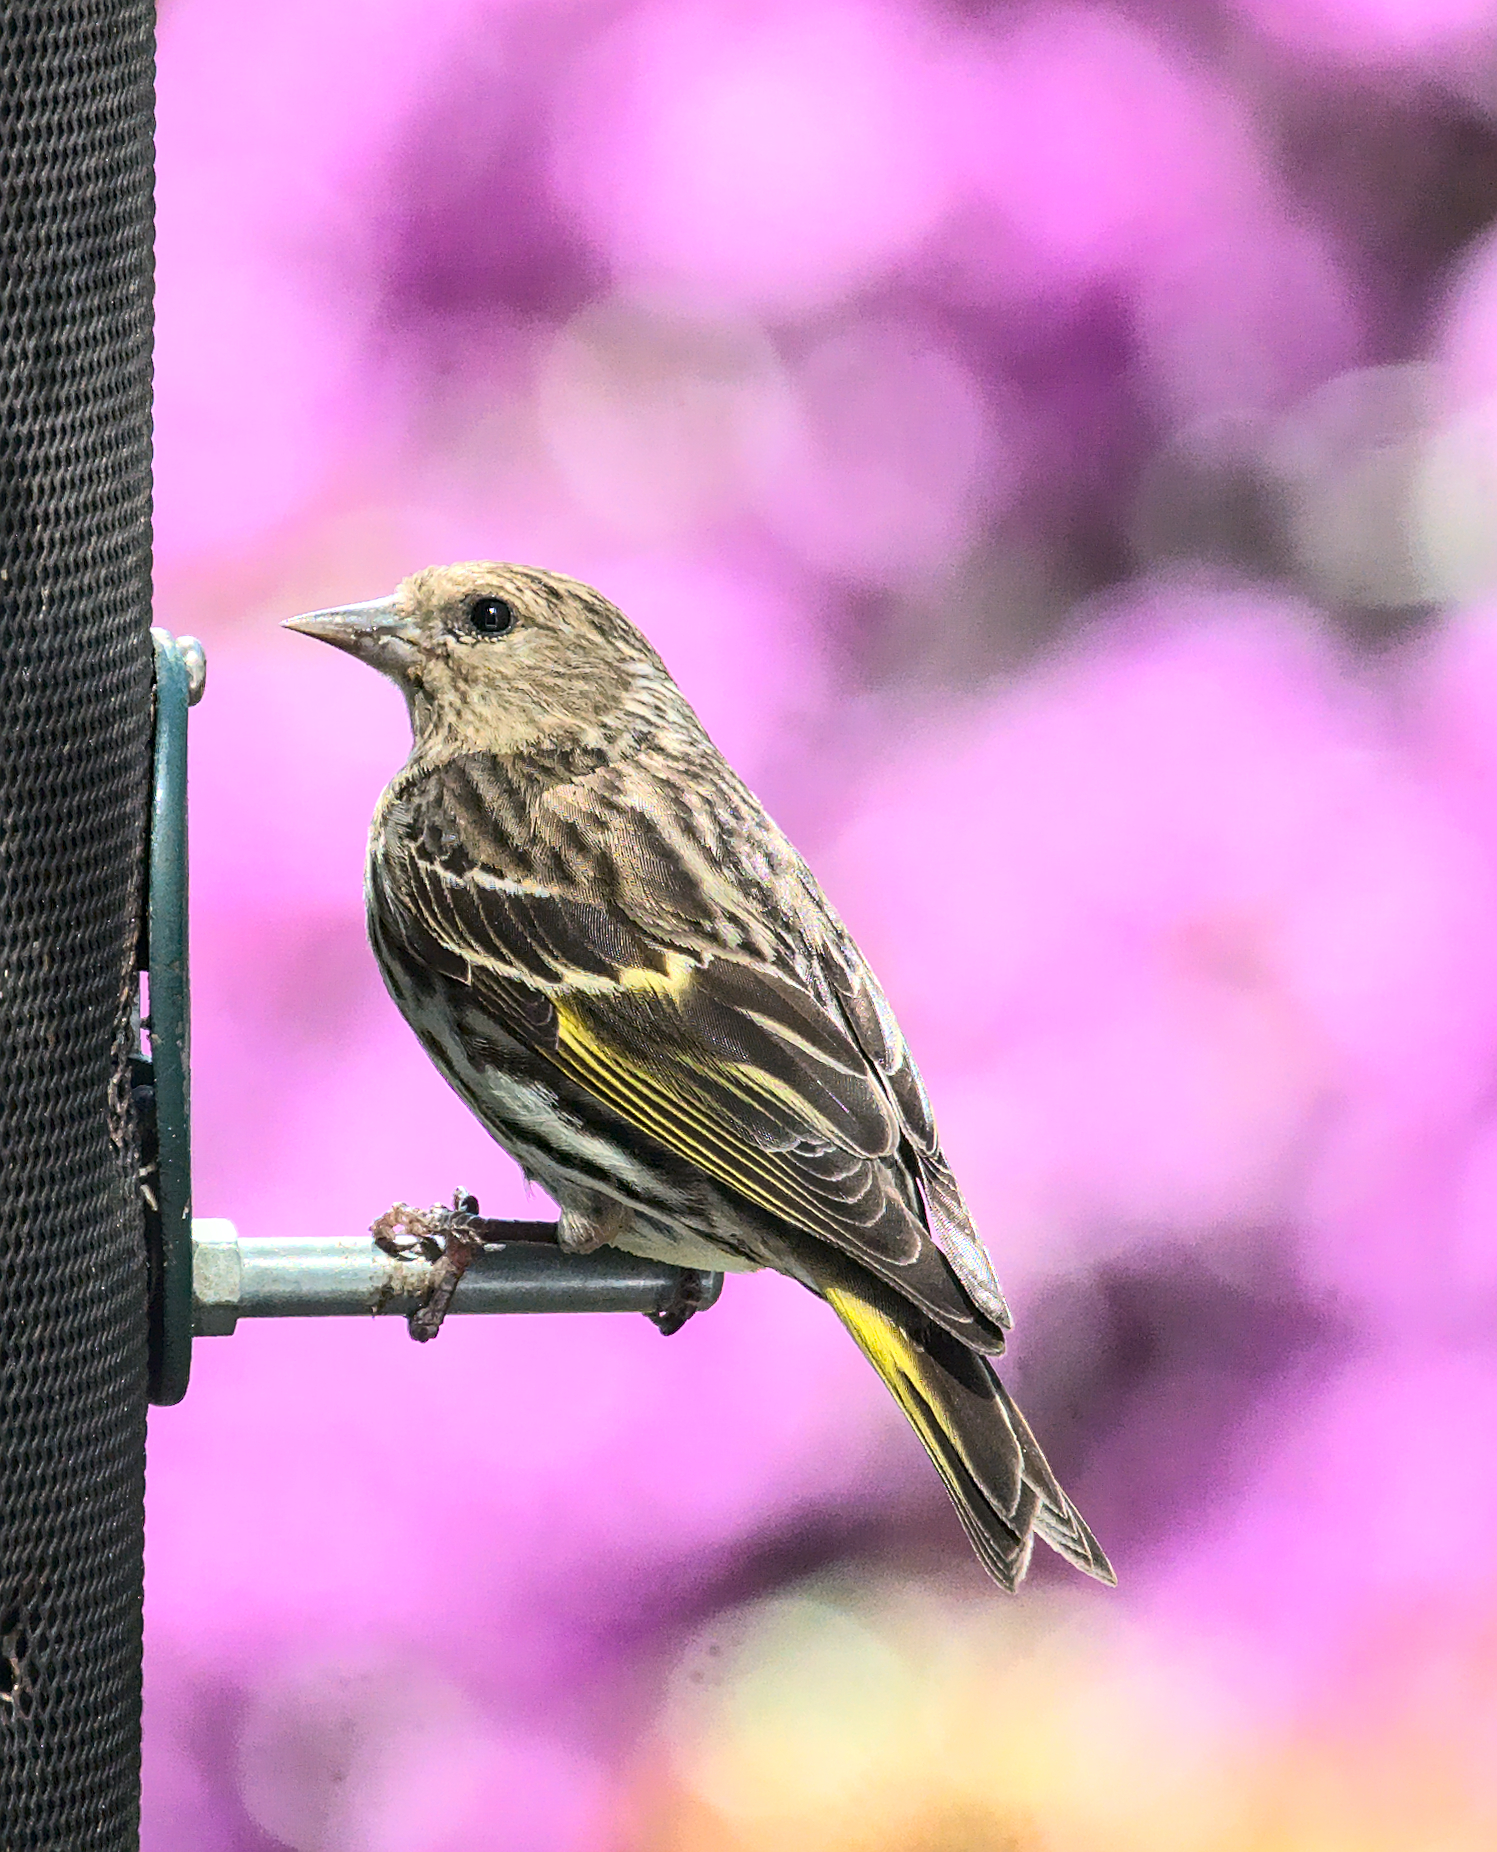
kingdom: Animalia
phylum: Chordata
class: Aves
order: Passeriformes
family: Fringillidae
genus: Spinus
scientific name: Spinus pinus
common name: Pine siskin
